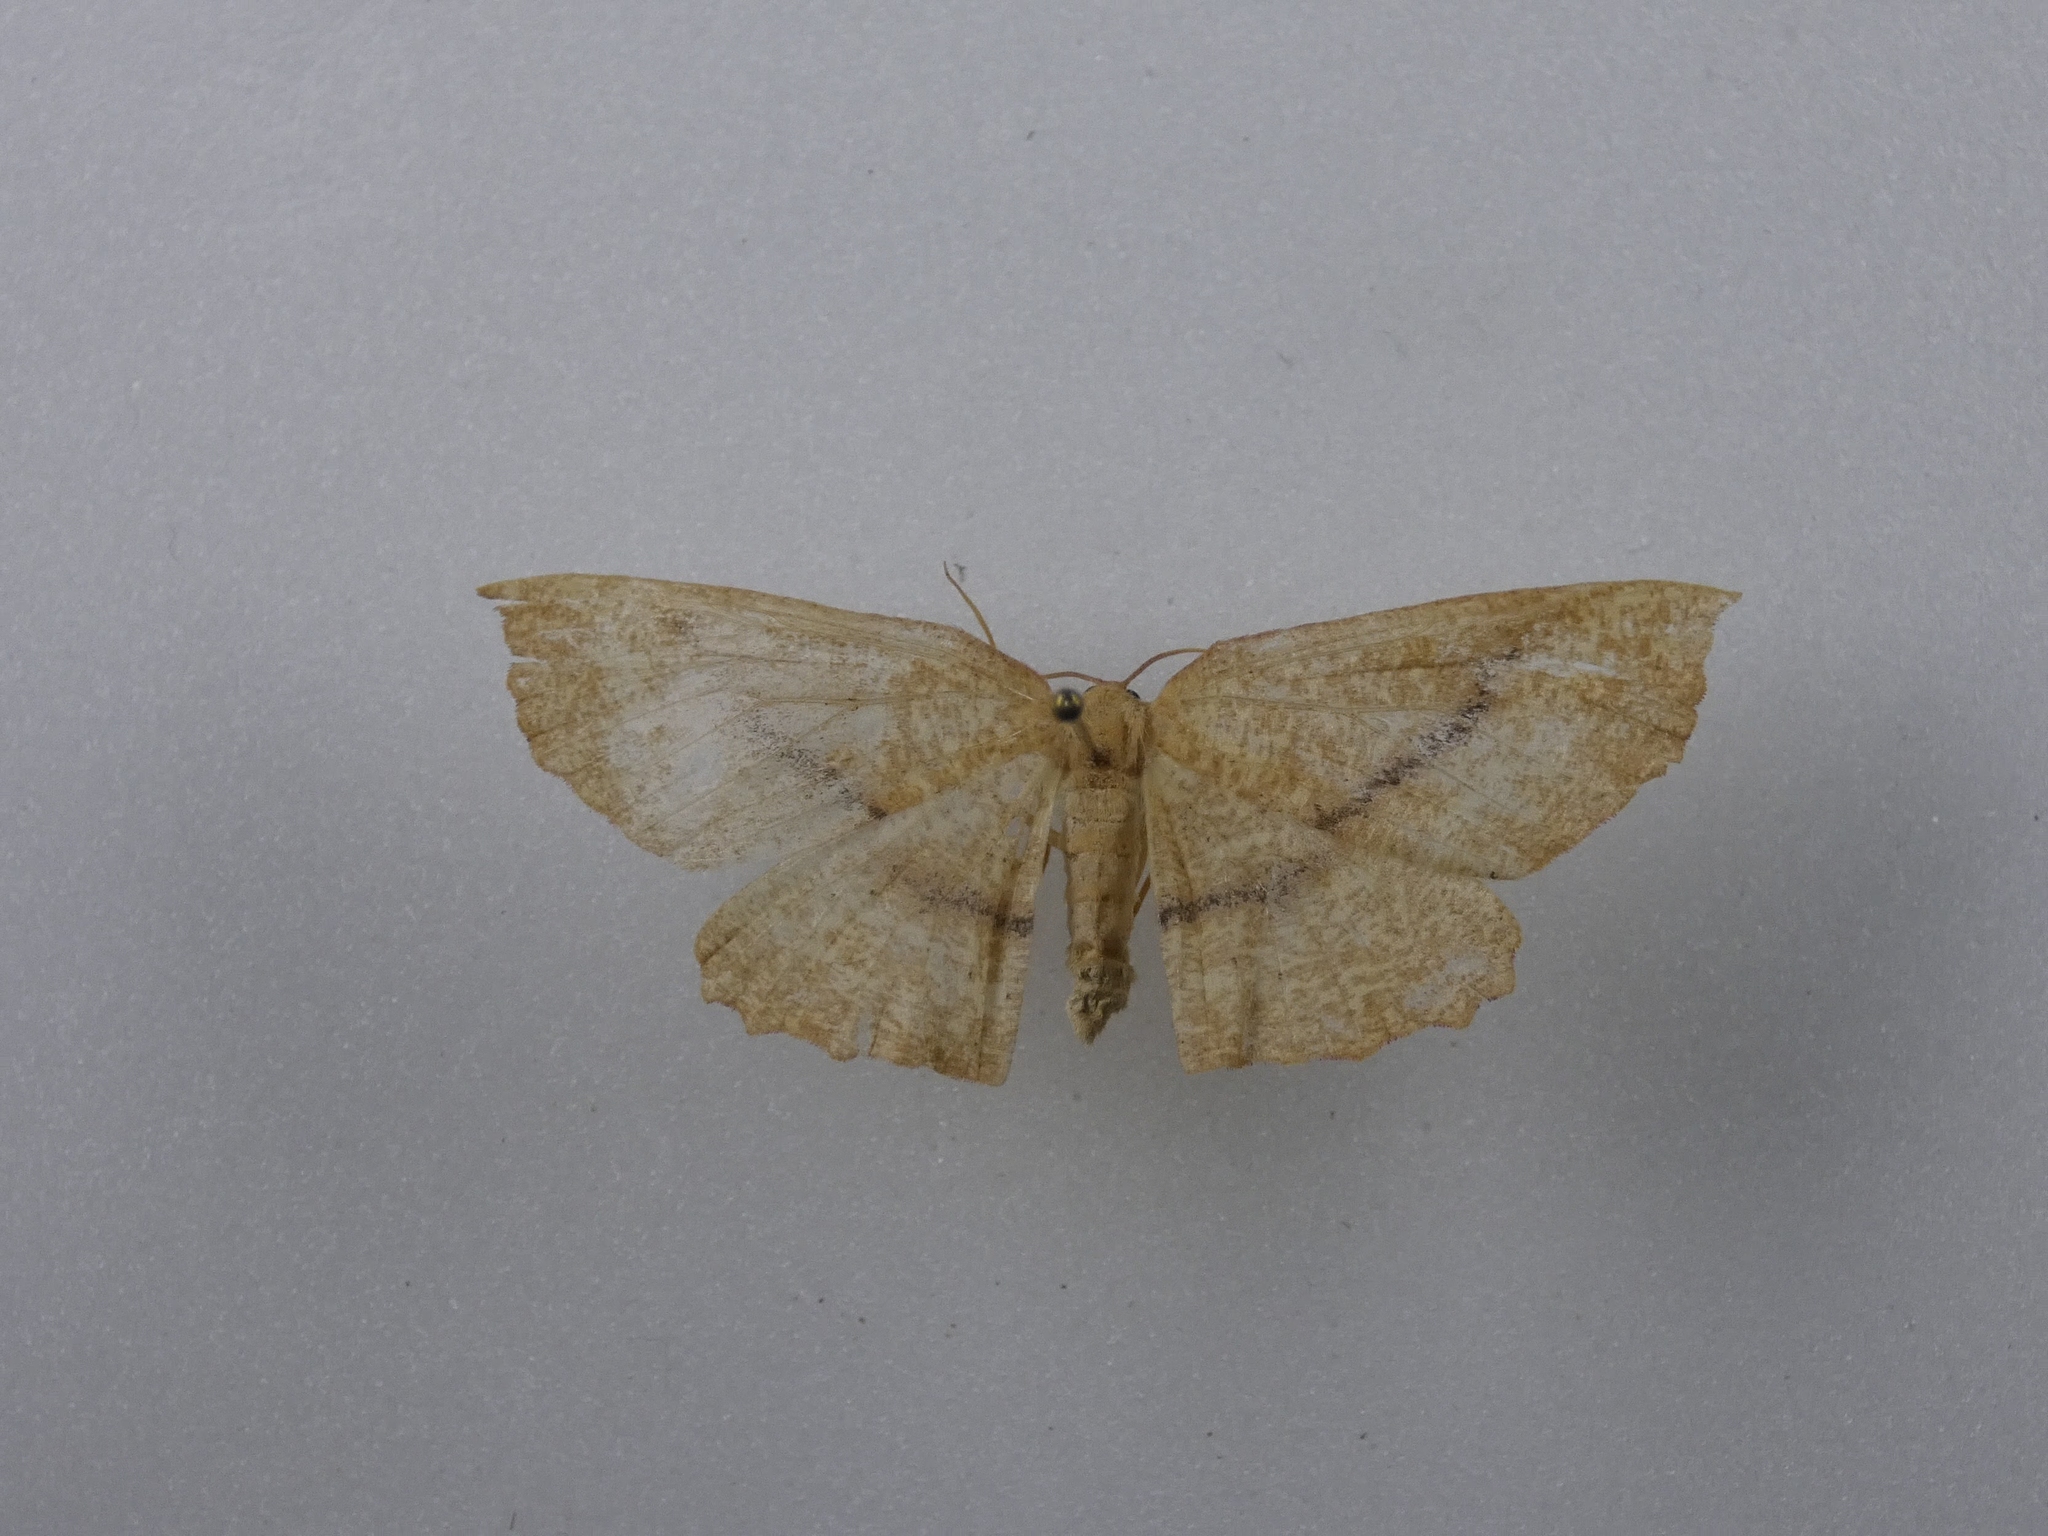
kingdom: Animalia
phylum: Arthropoda
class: Insecta
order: Lepidoptera
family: Geometridae
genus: Xyridacma
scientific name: Xyridacma alectoraria
